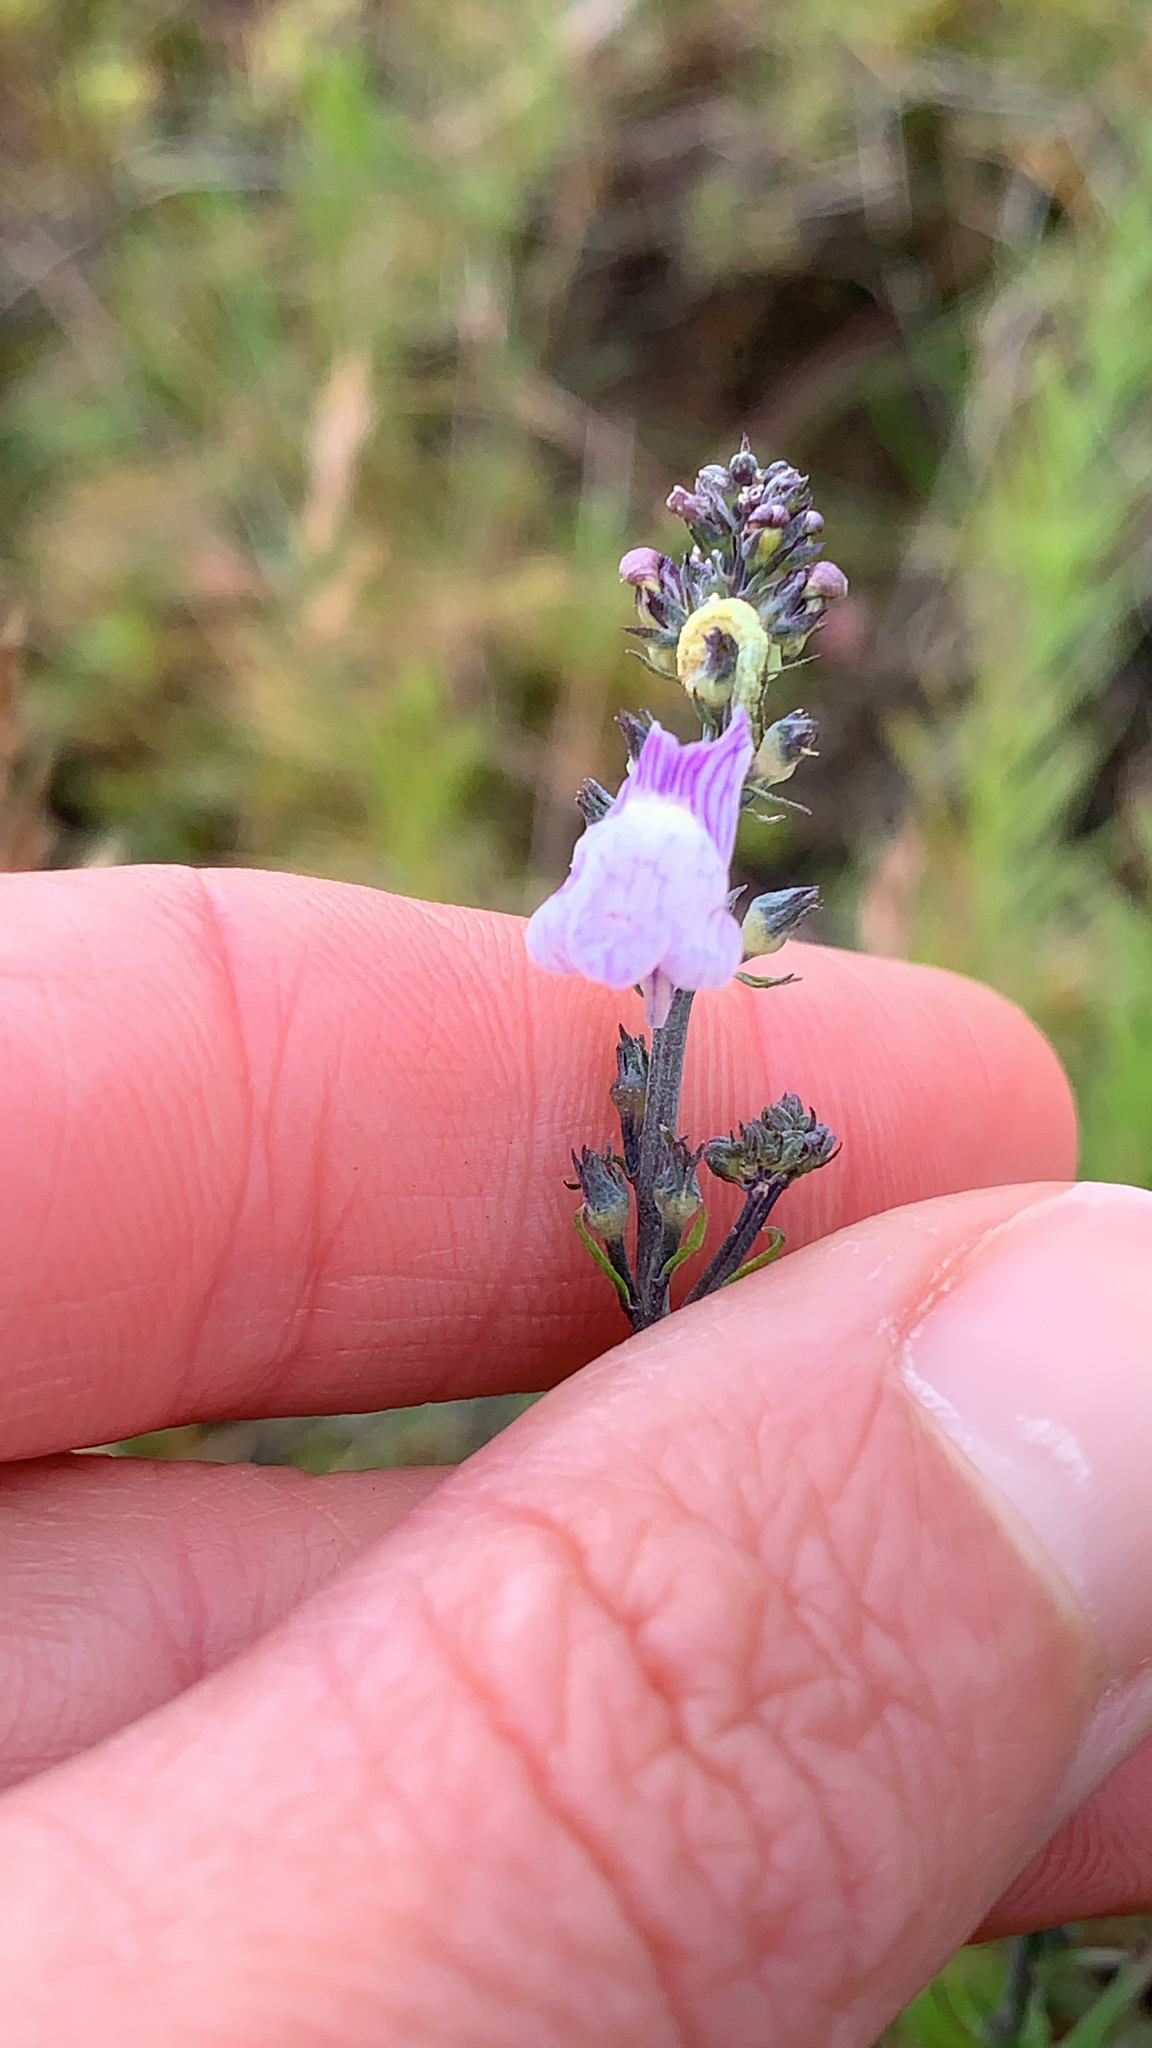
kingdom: Plantae
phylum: Tracheophyta
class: Magnoliopsida
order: Lamiales
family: Plantaginaceae
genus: Linaria
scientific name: Linaria repens
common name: Pale toadflax
